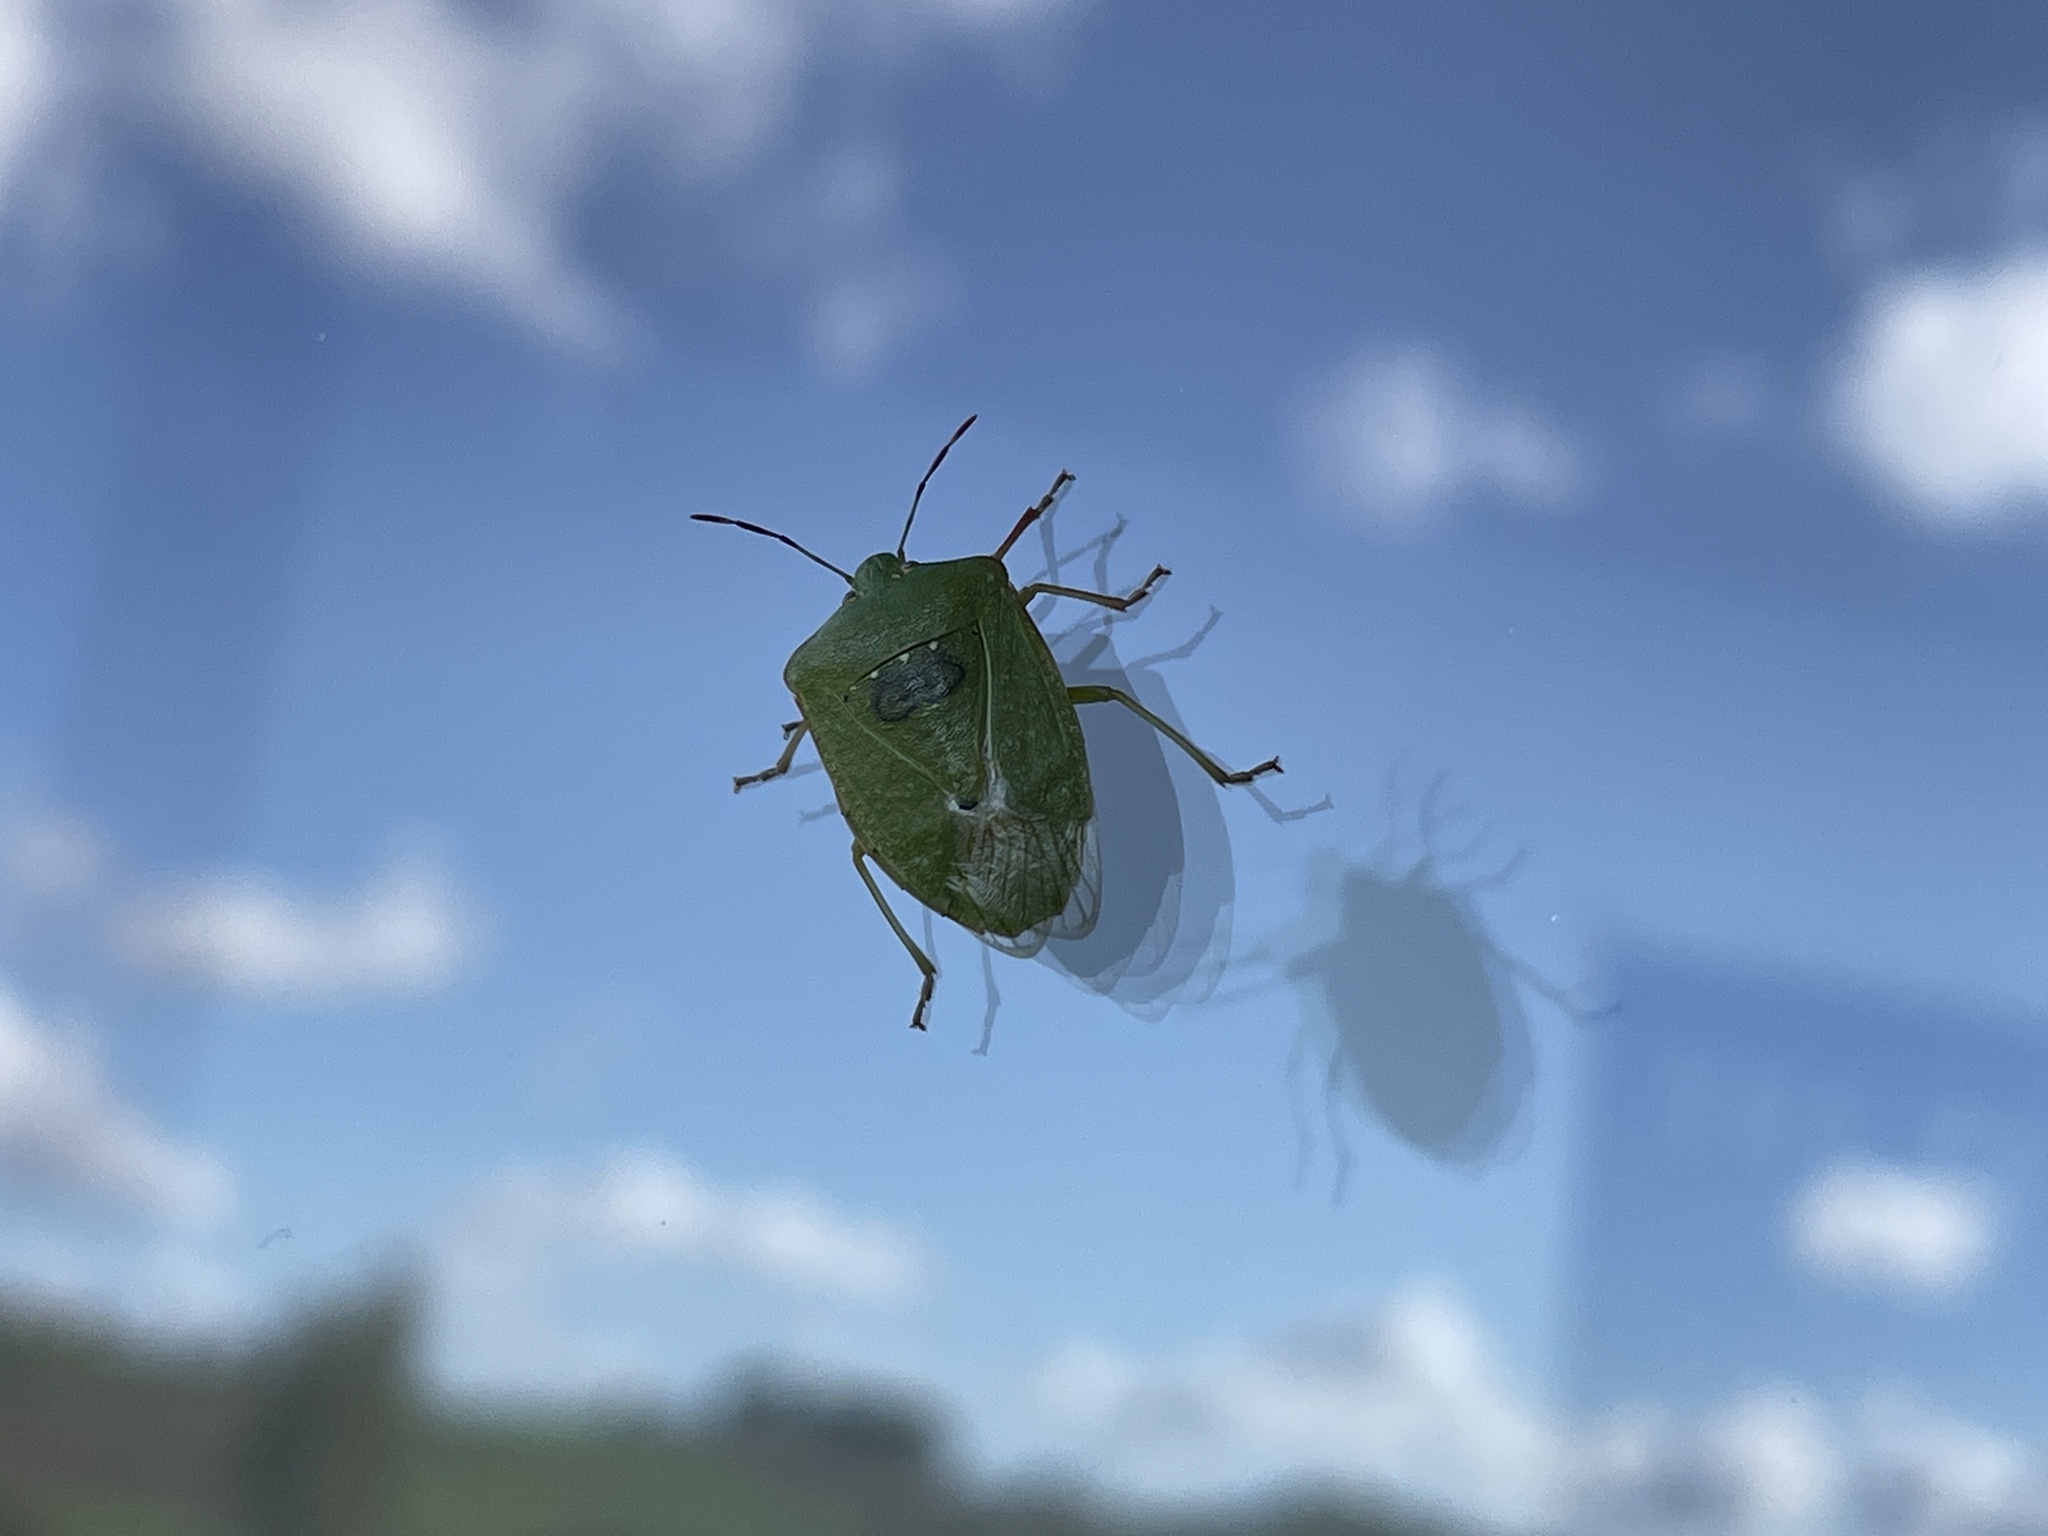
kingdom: Animalia
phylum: Arthropoda
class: Insecta
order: Hemiptera
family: Pentatomidae
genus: Nezara
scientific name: Nezara viridula
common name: Southern green stink bug
